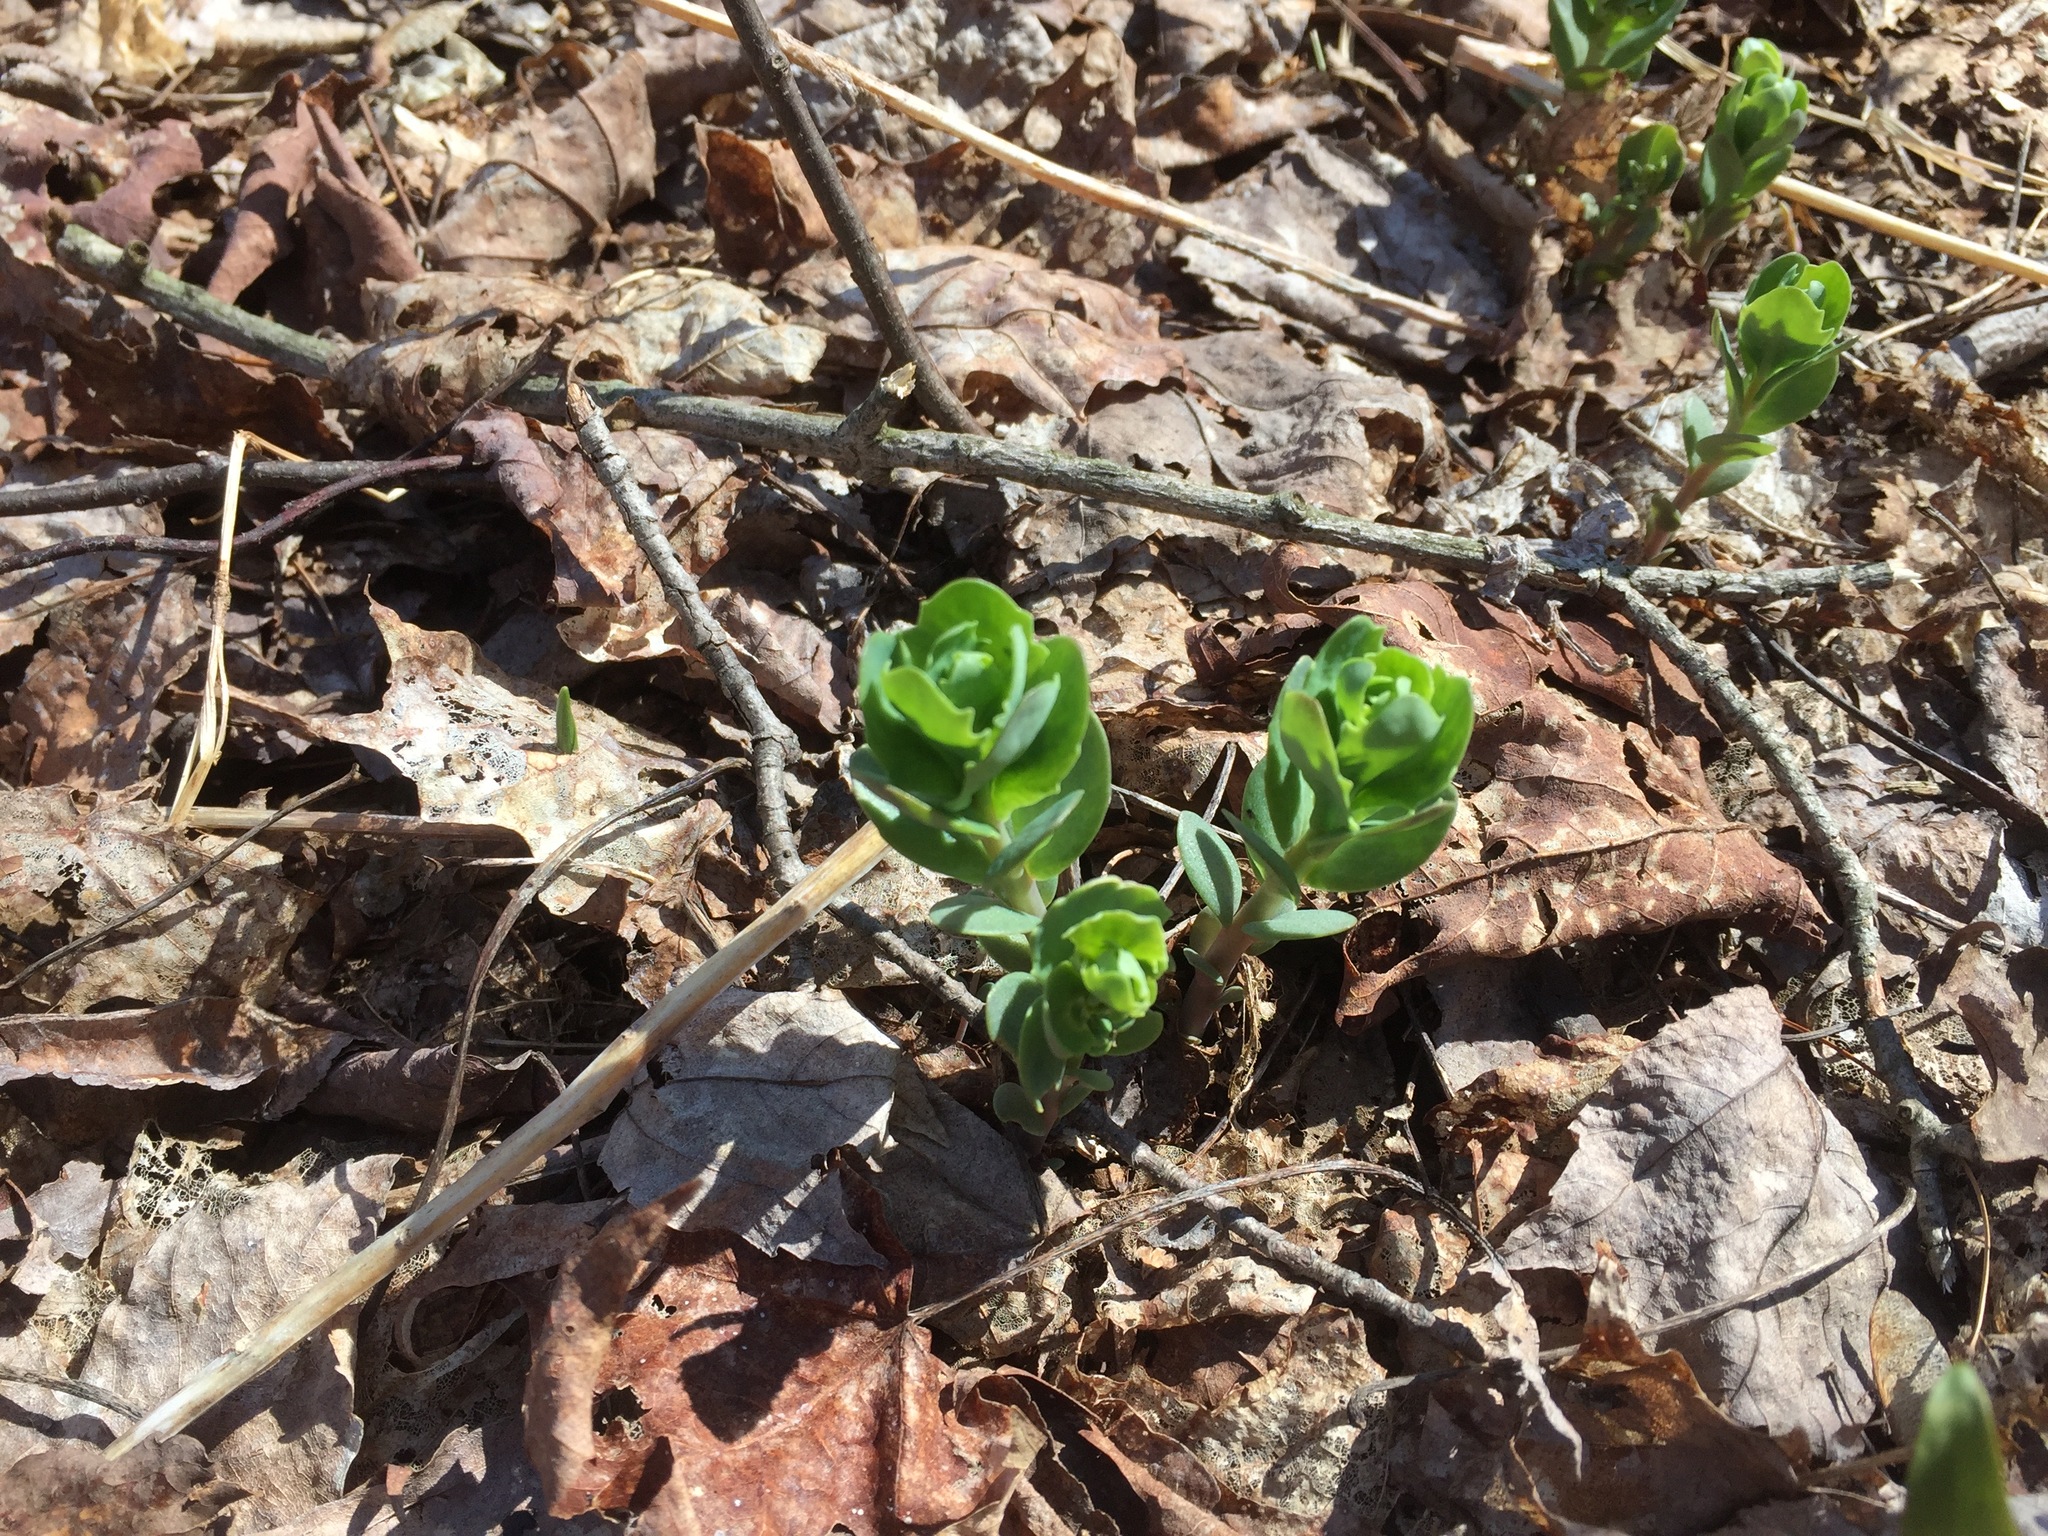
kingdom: Plantae
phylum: Tracheophyta
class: Magnoliopsida
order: Saxifragales
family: Crassulaceae
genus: Hylotelephium
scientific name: Hylotelephium telephium
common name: Live-forever
